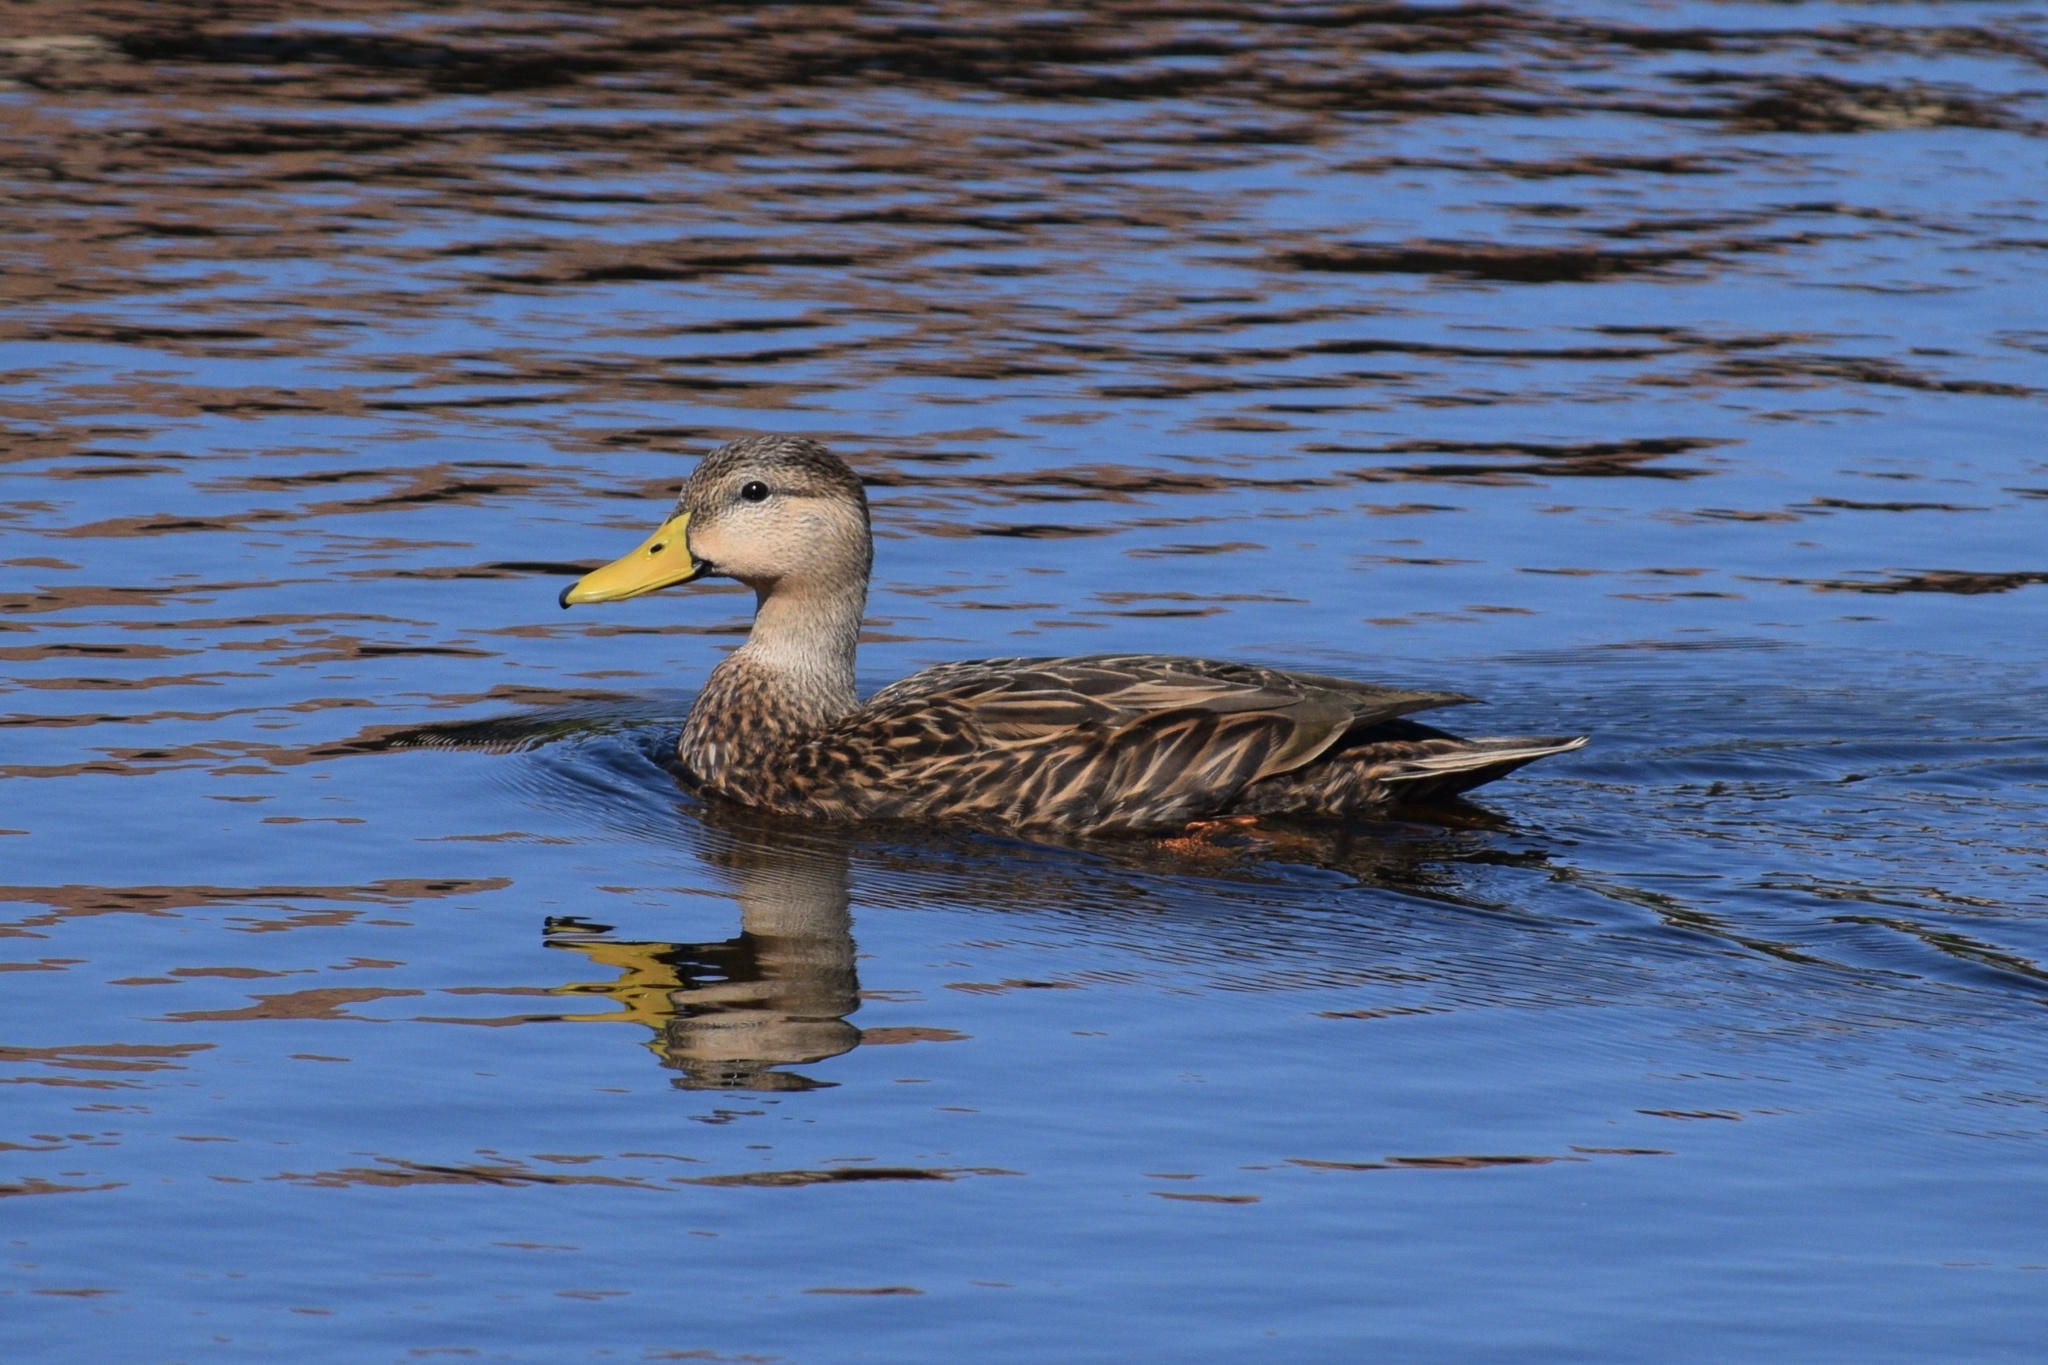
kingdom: Animalia
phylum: Chordata
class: Aves
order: Anseriformes
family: Anatidae
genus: Anas
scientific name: Anas fulvigula
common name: Mottled duck
